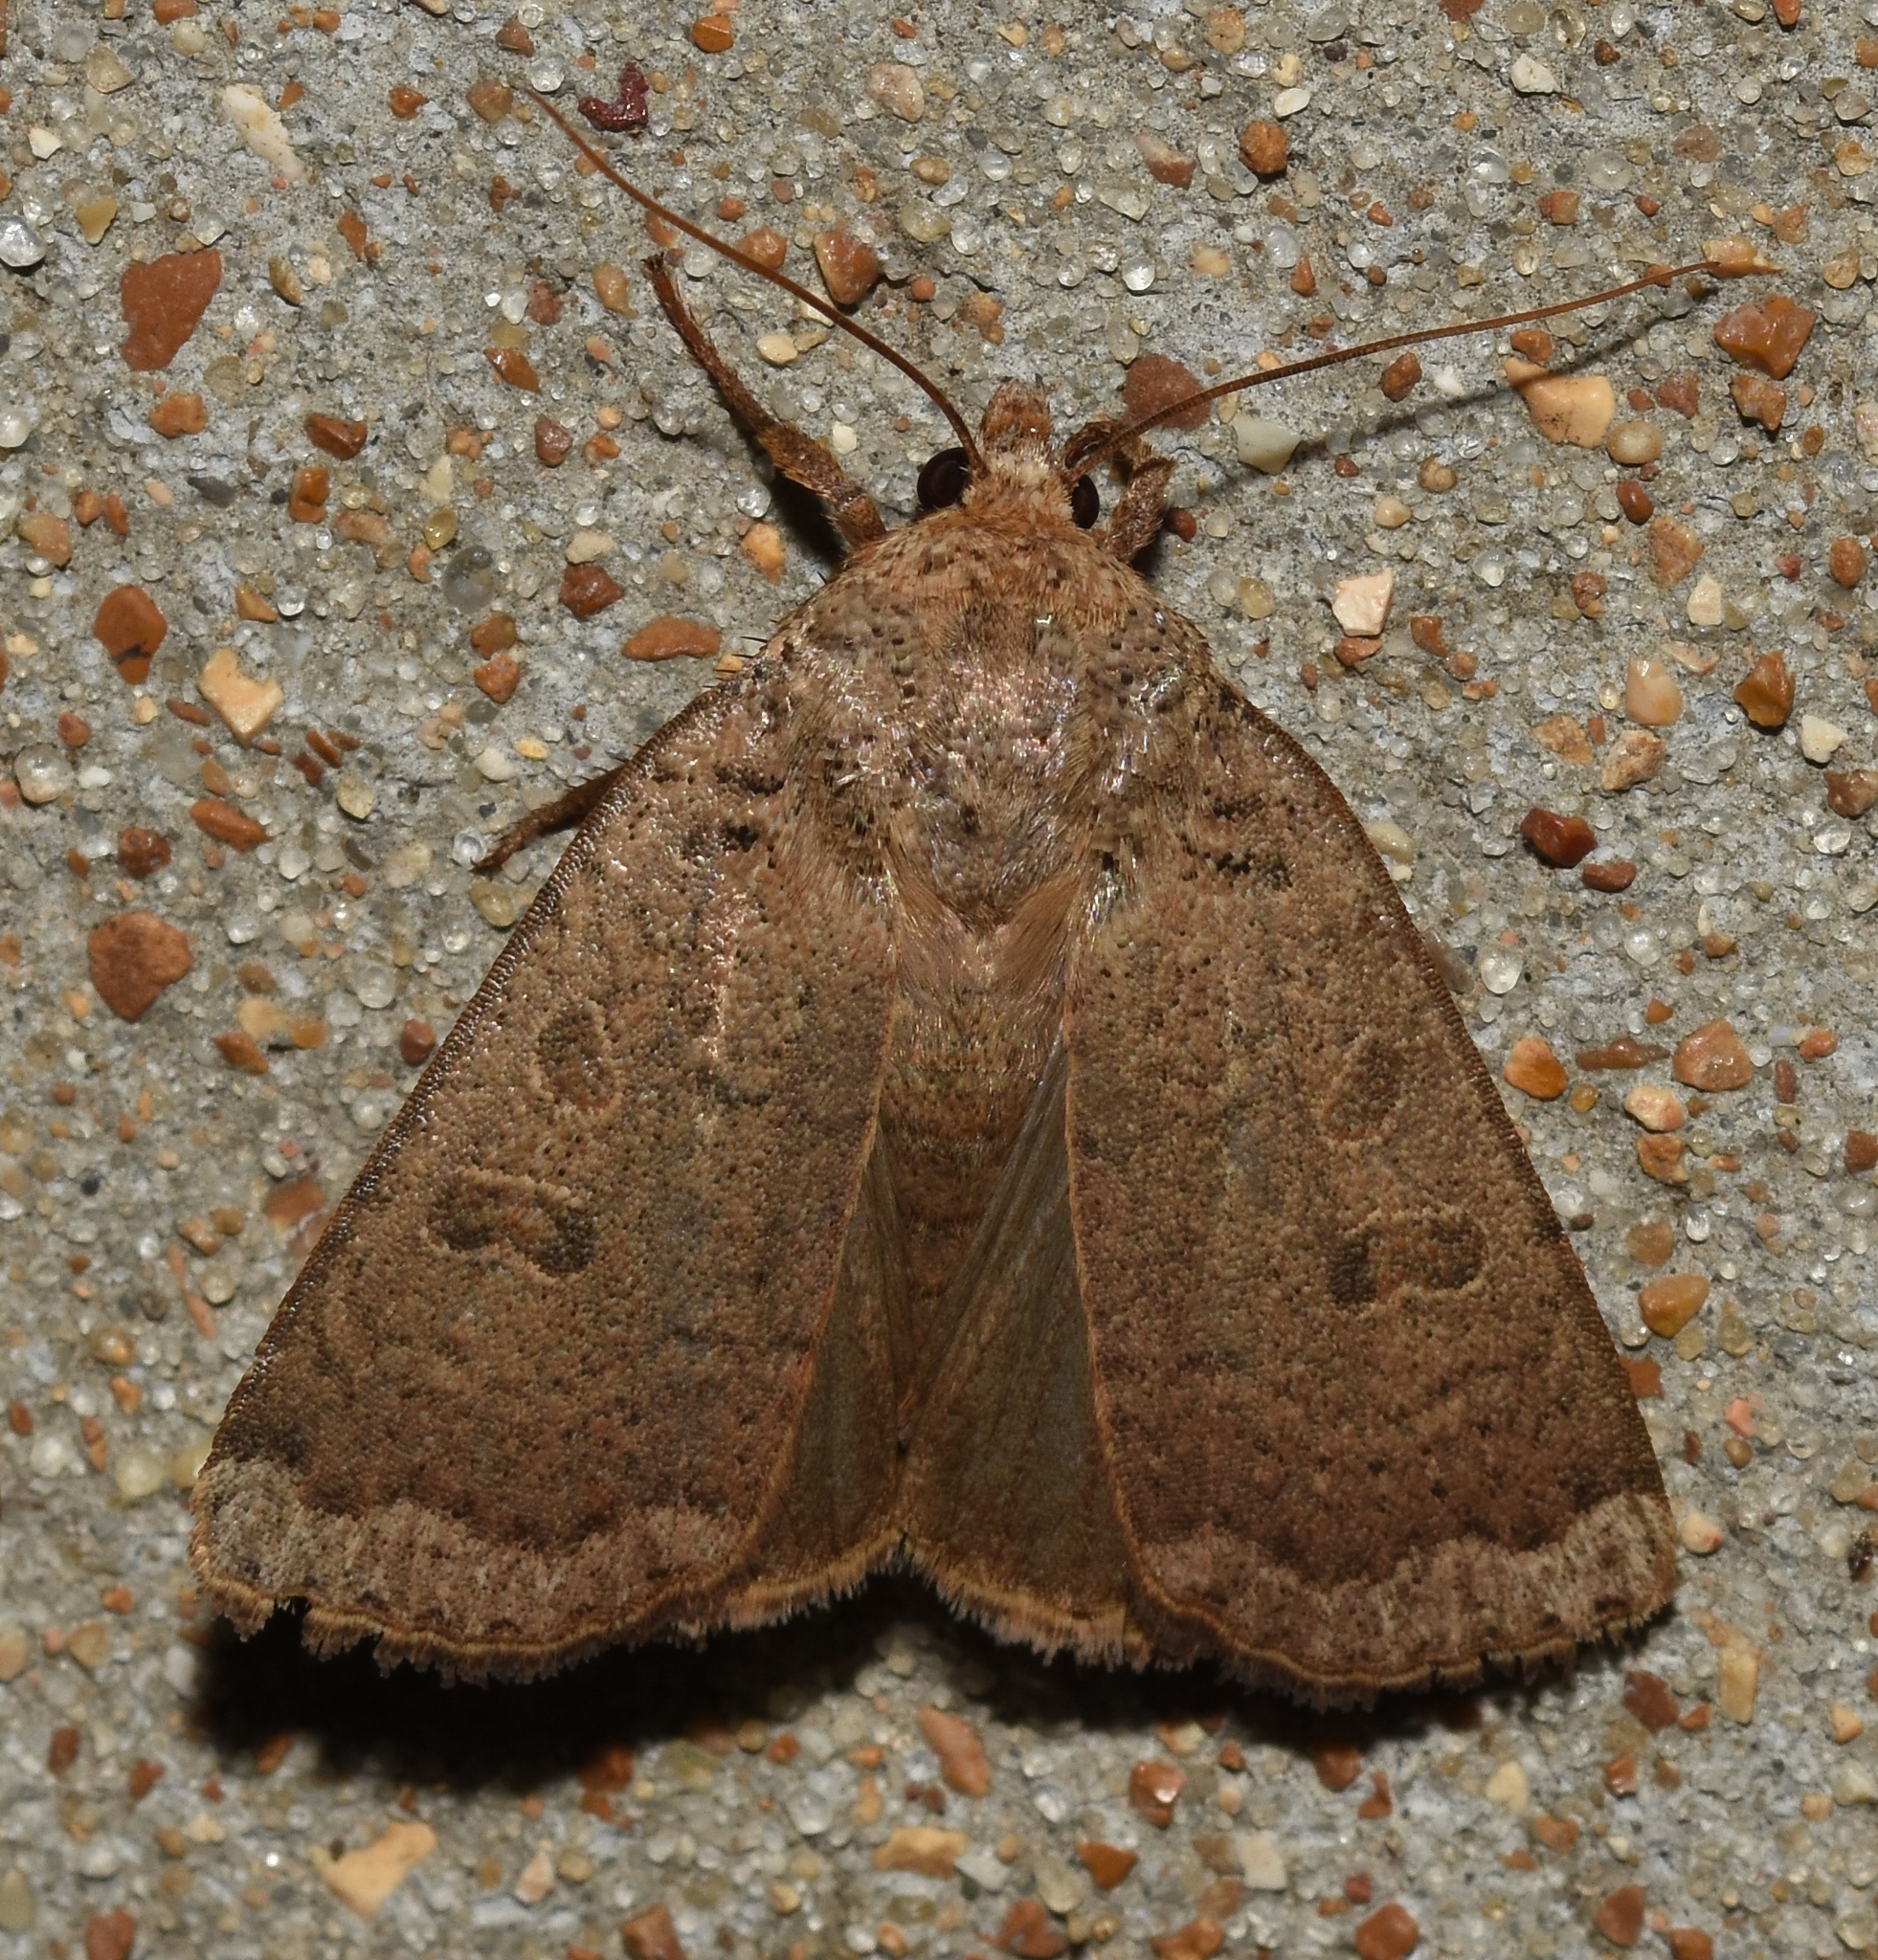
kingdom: Animalia
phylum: Arthropoda
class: Insecta
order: Lepidoptera
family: Noctuidae
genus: Abagrotis
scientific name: Abagrotis alternata
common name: Greater red dart
